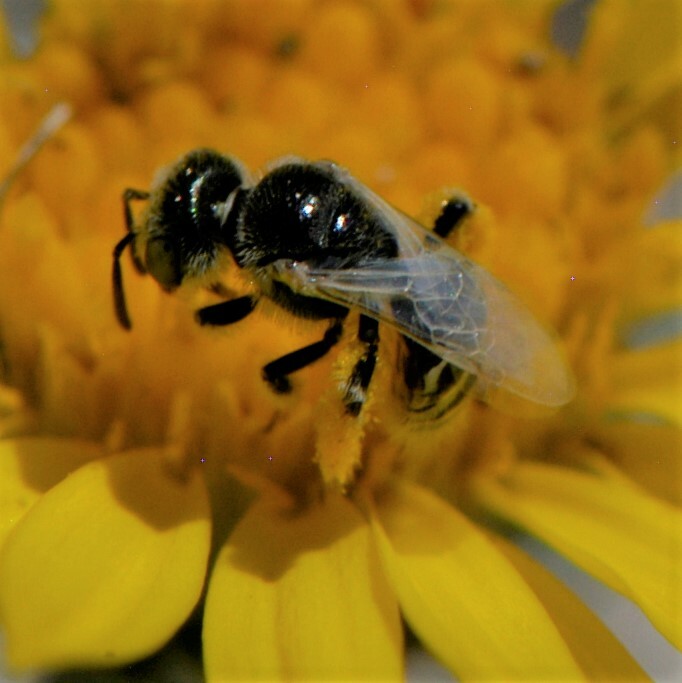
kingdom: Animalia
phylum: Arthropoda
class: Insecta
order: Hymenoptera
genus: Pentaperdita
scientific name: Pentaperdita
